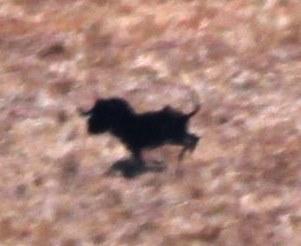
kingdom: Animalia
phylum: Chordata
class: Mammalia
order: Artiodactyla
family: Bovidae
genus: Connochaetes
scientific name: Connochaetes gnou
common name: Black wildebeest
